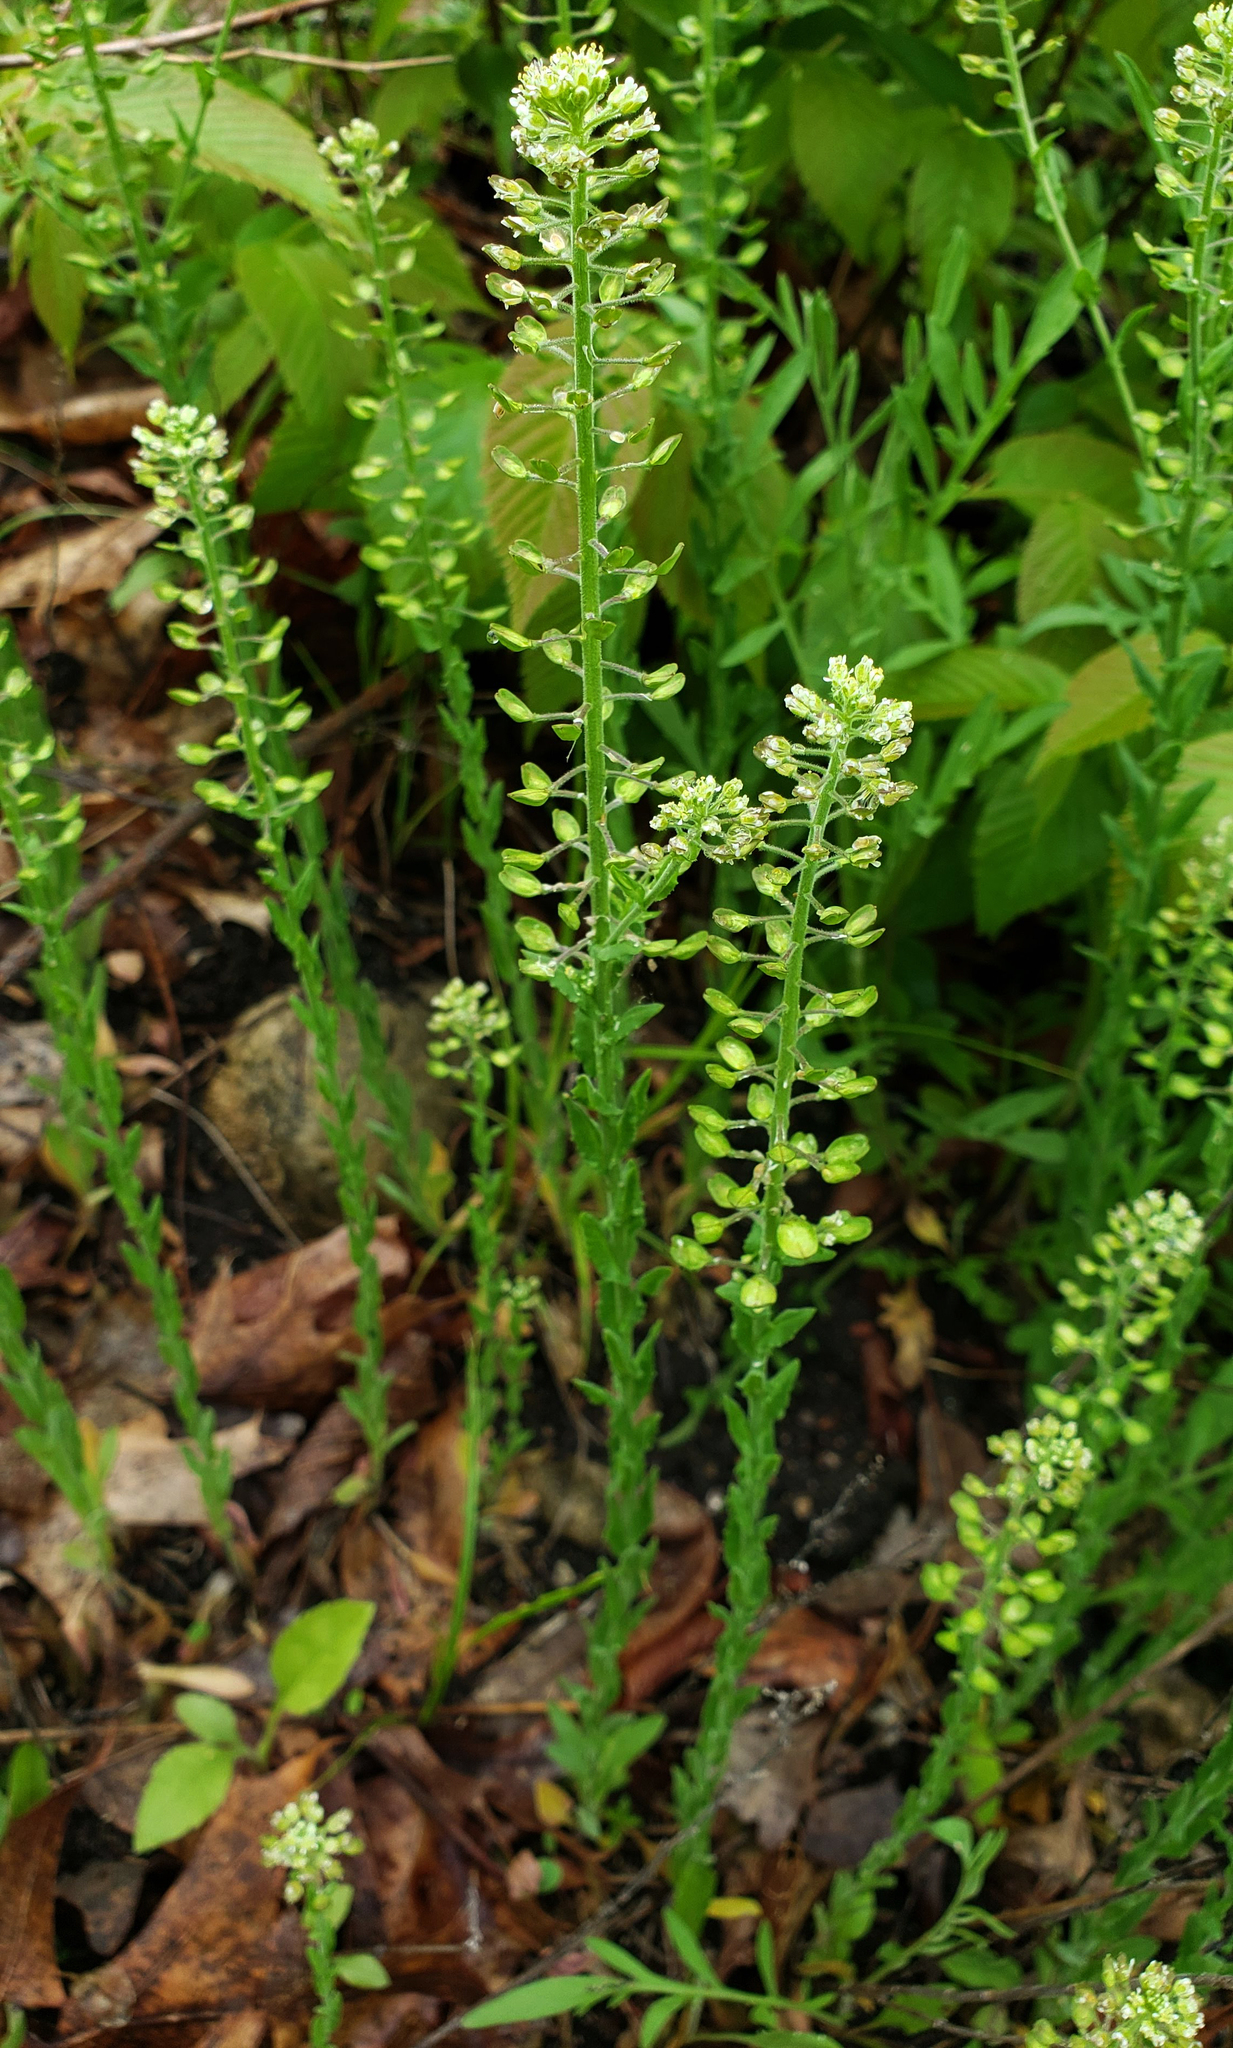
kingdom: Plantae
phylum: Tracheophyta
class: Magnoliopsida
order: Brassicales
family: Brassicaceae
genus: Lepidium
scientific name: Lepidium campestre
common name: Field pepperwort
